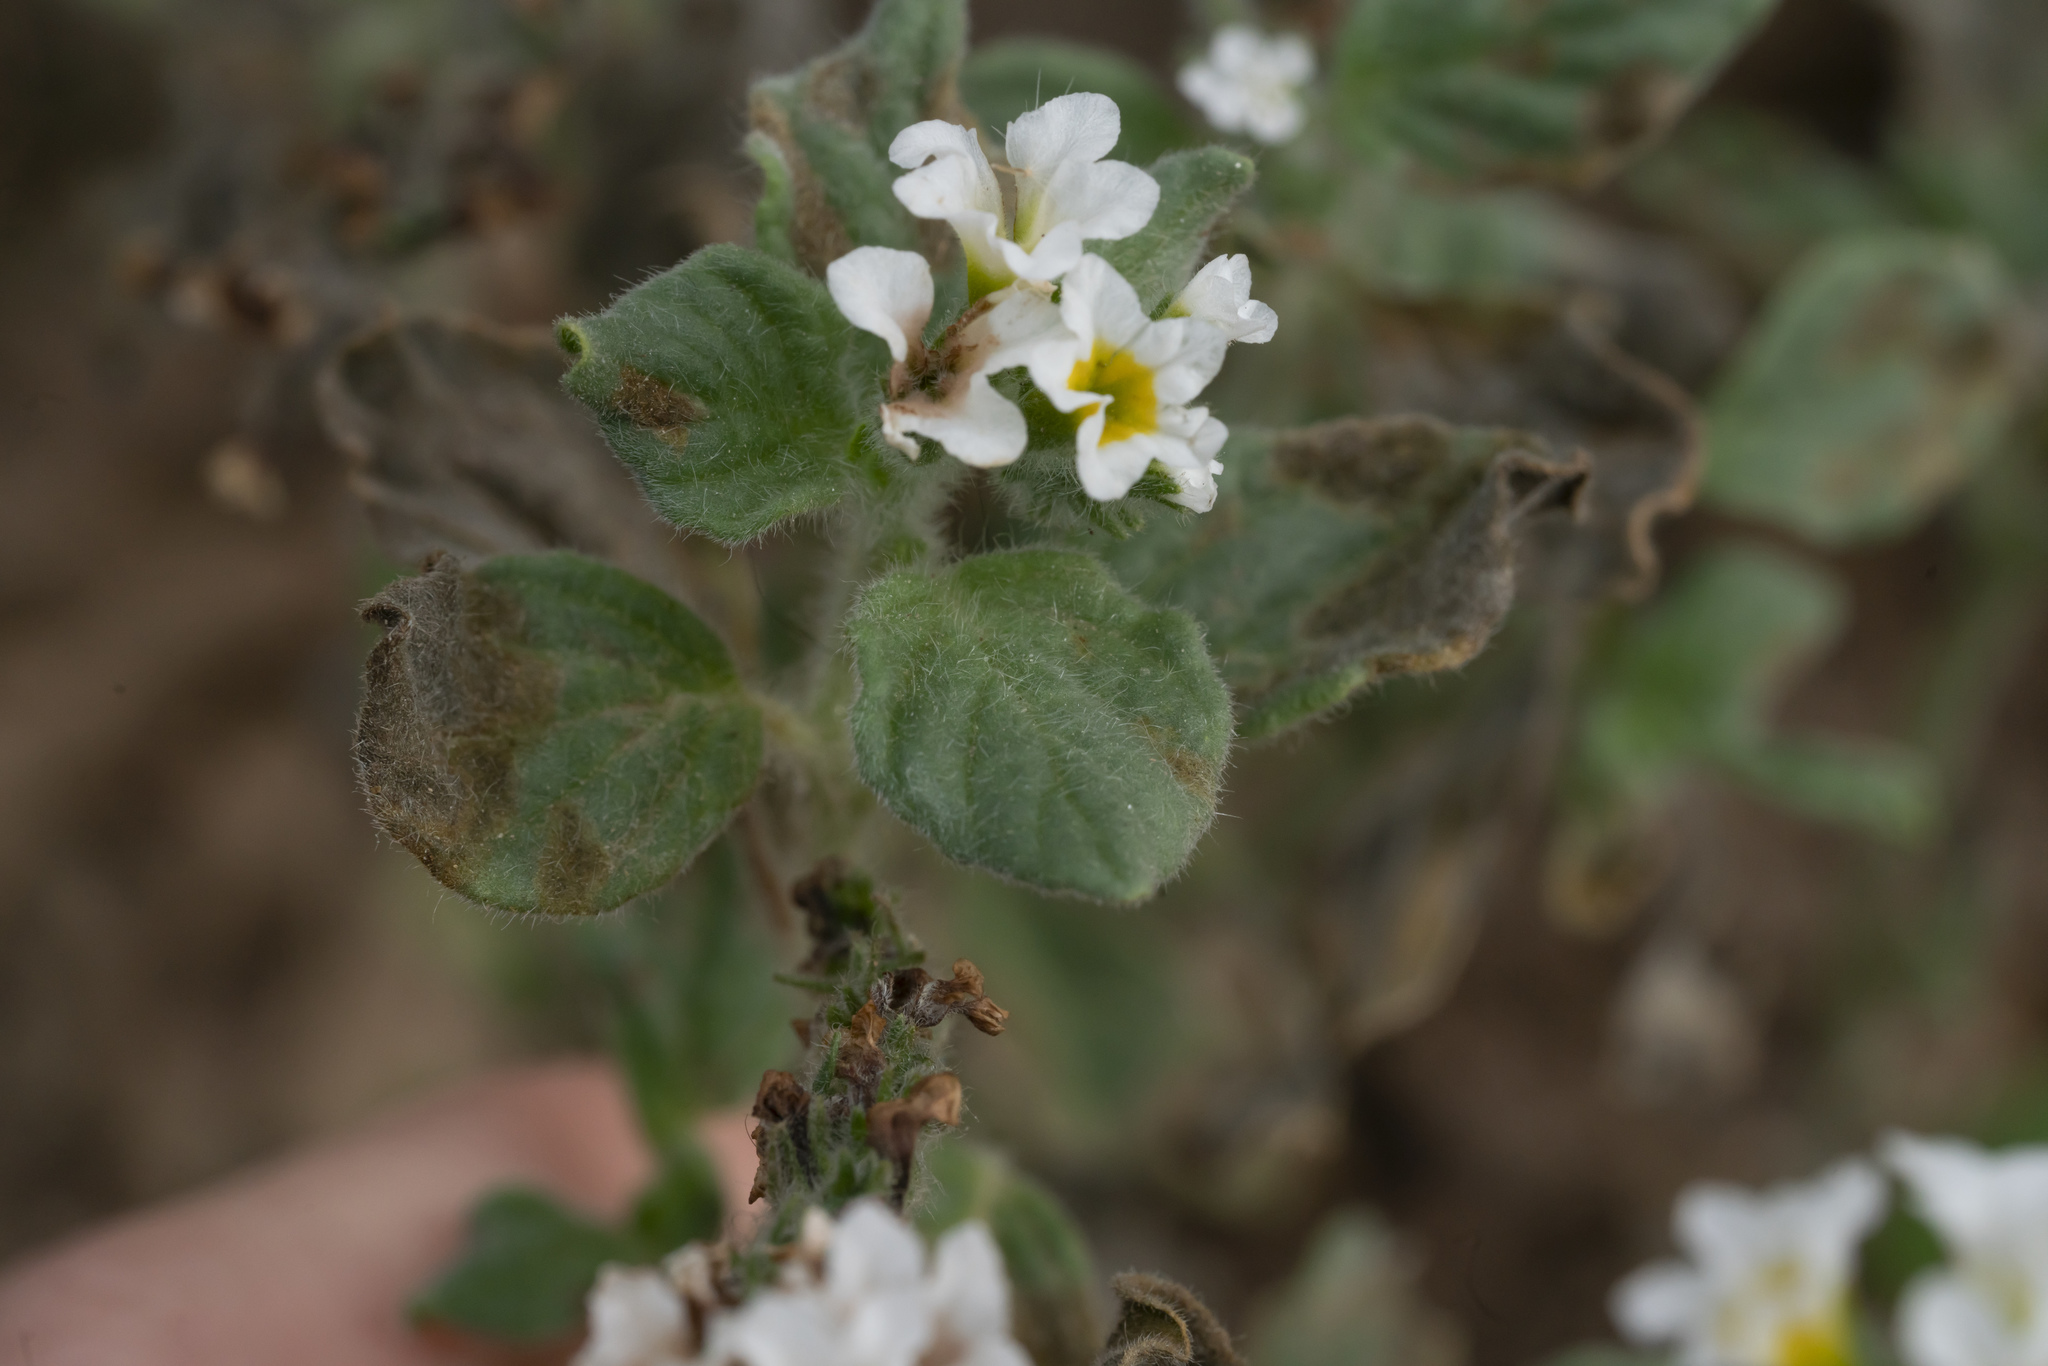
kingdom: Plantae
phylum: Tracheophyta
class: Magnoliopsida
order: Boraginales
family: Heliotropiaceae
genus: Heliotropium
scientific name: Heliotropium hirsutissimum
